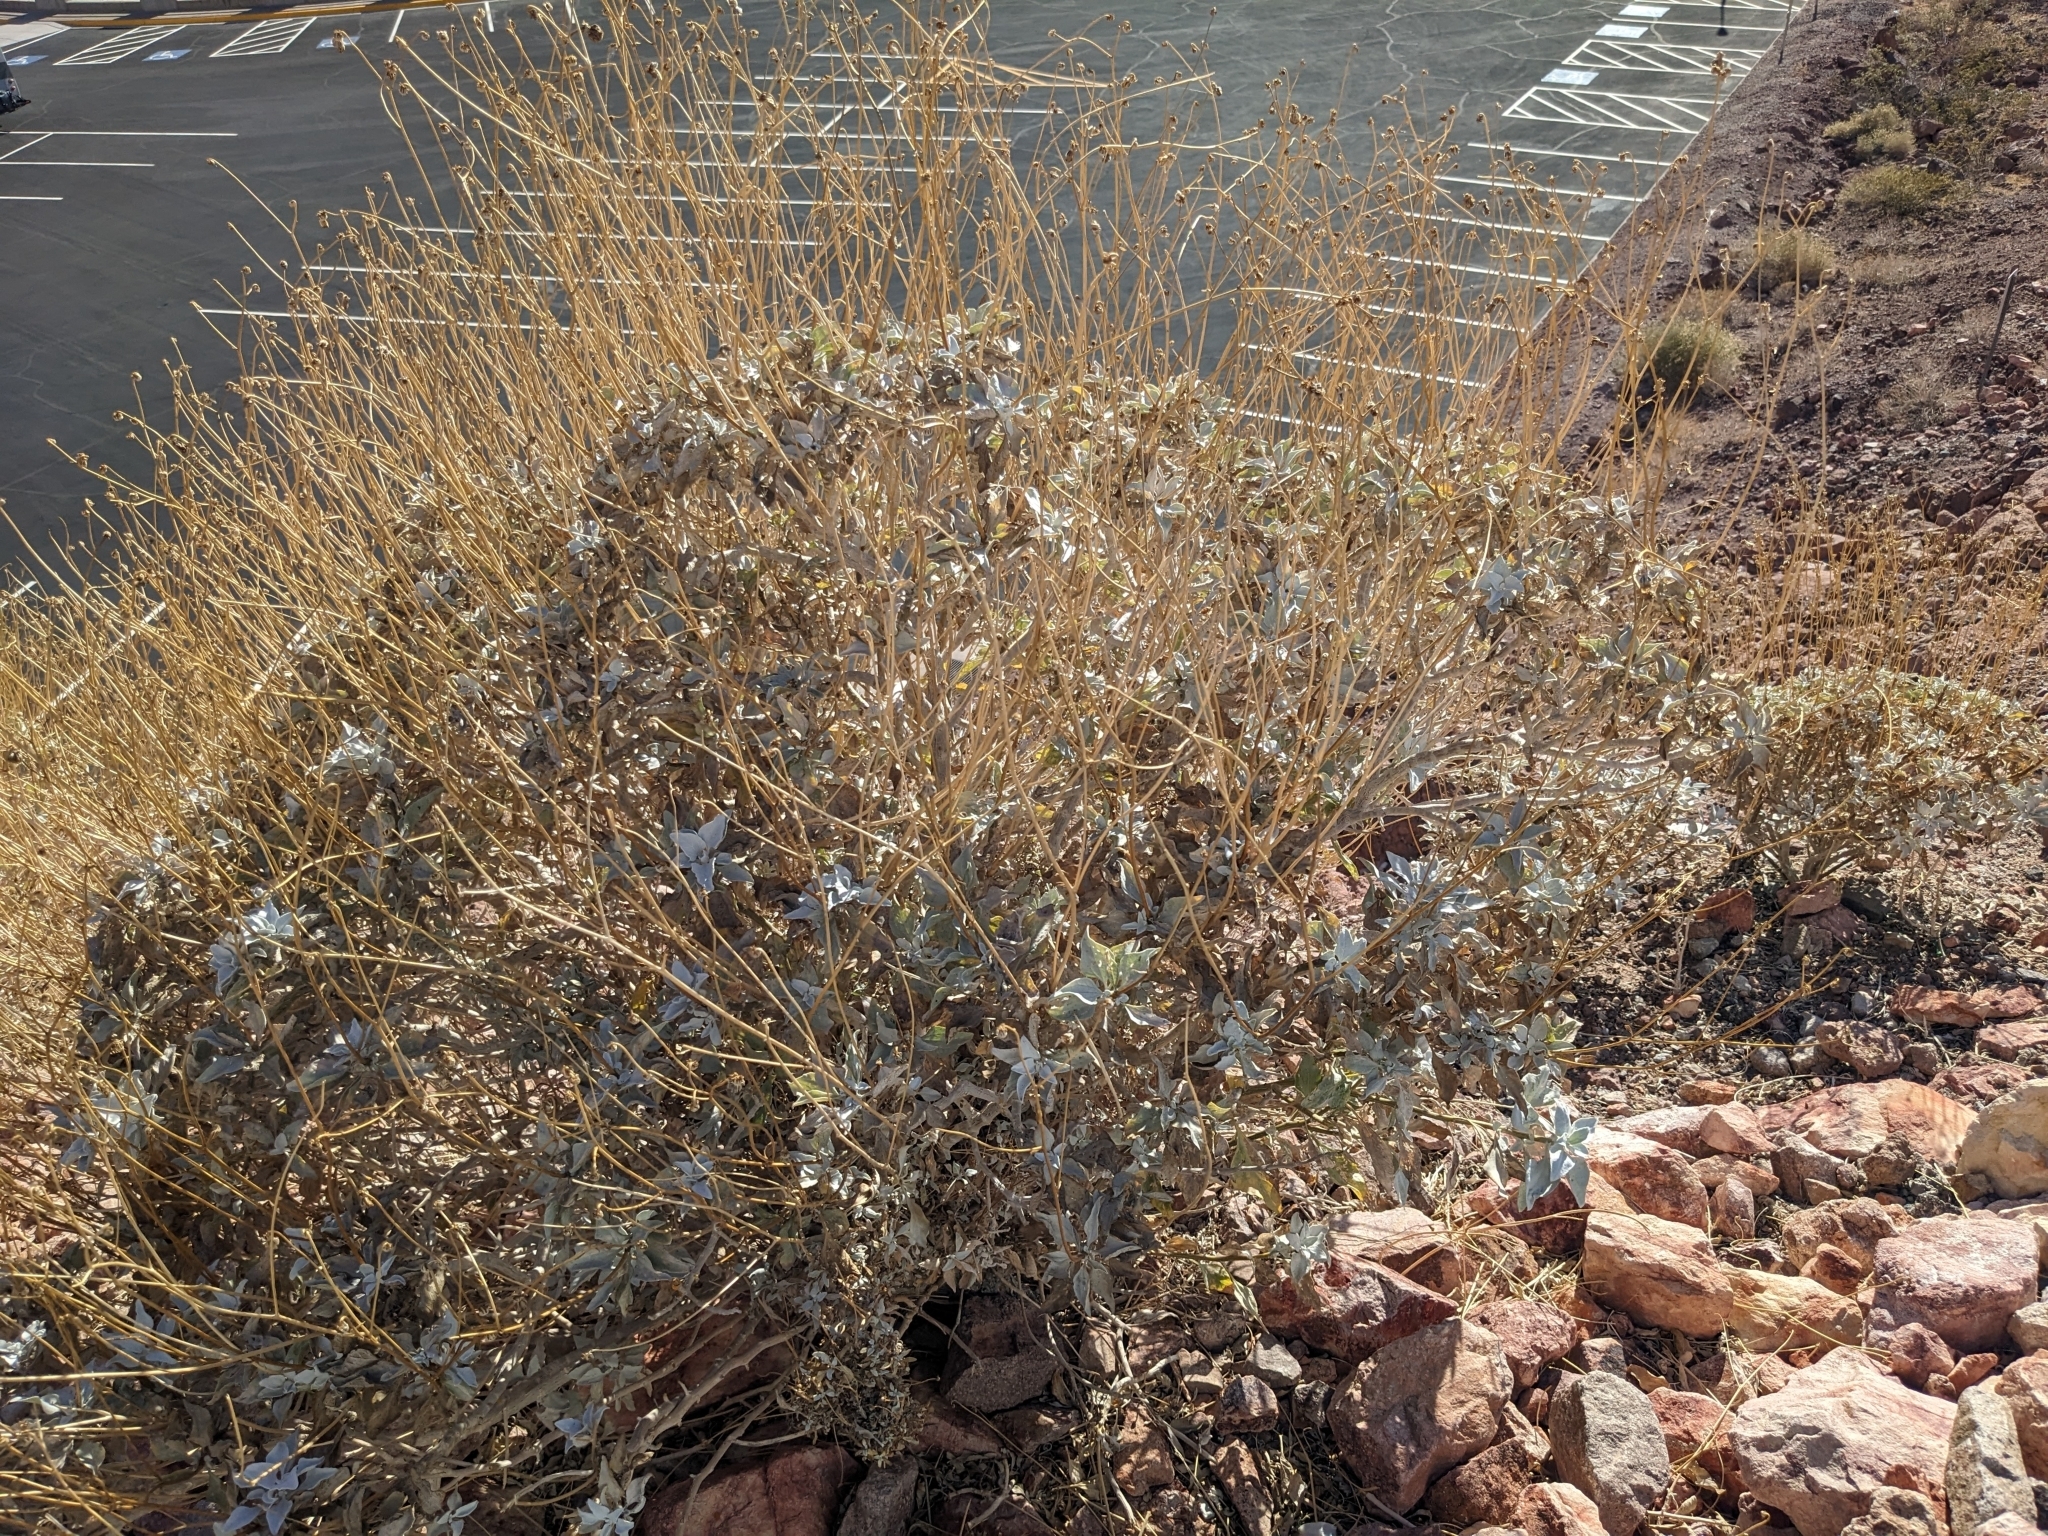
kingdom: Plantae
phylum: Tracheophyta
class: Magnoliopsida
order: Asterales
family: Asteraceae
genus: Encelia
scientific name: Encelia farinosa
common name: Brittlebush
